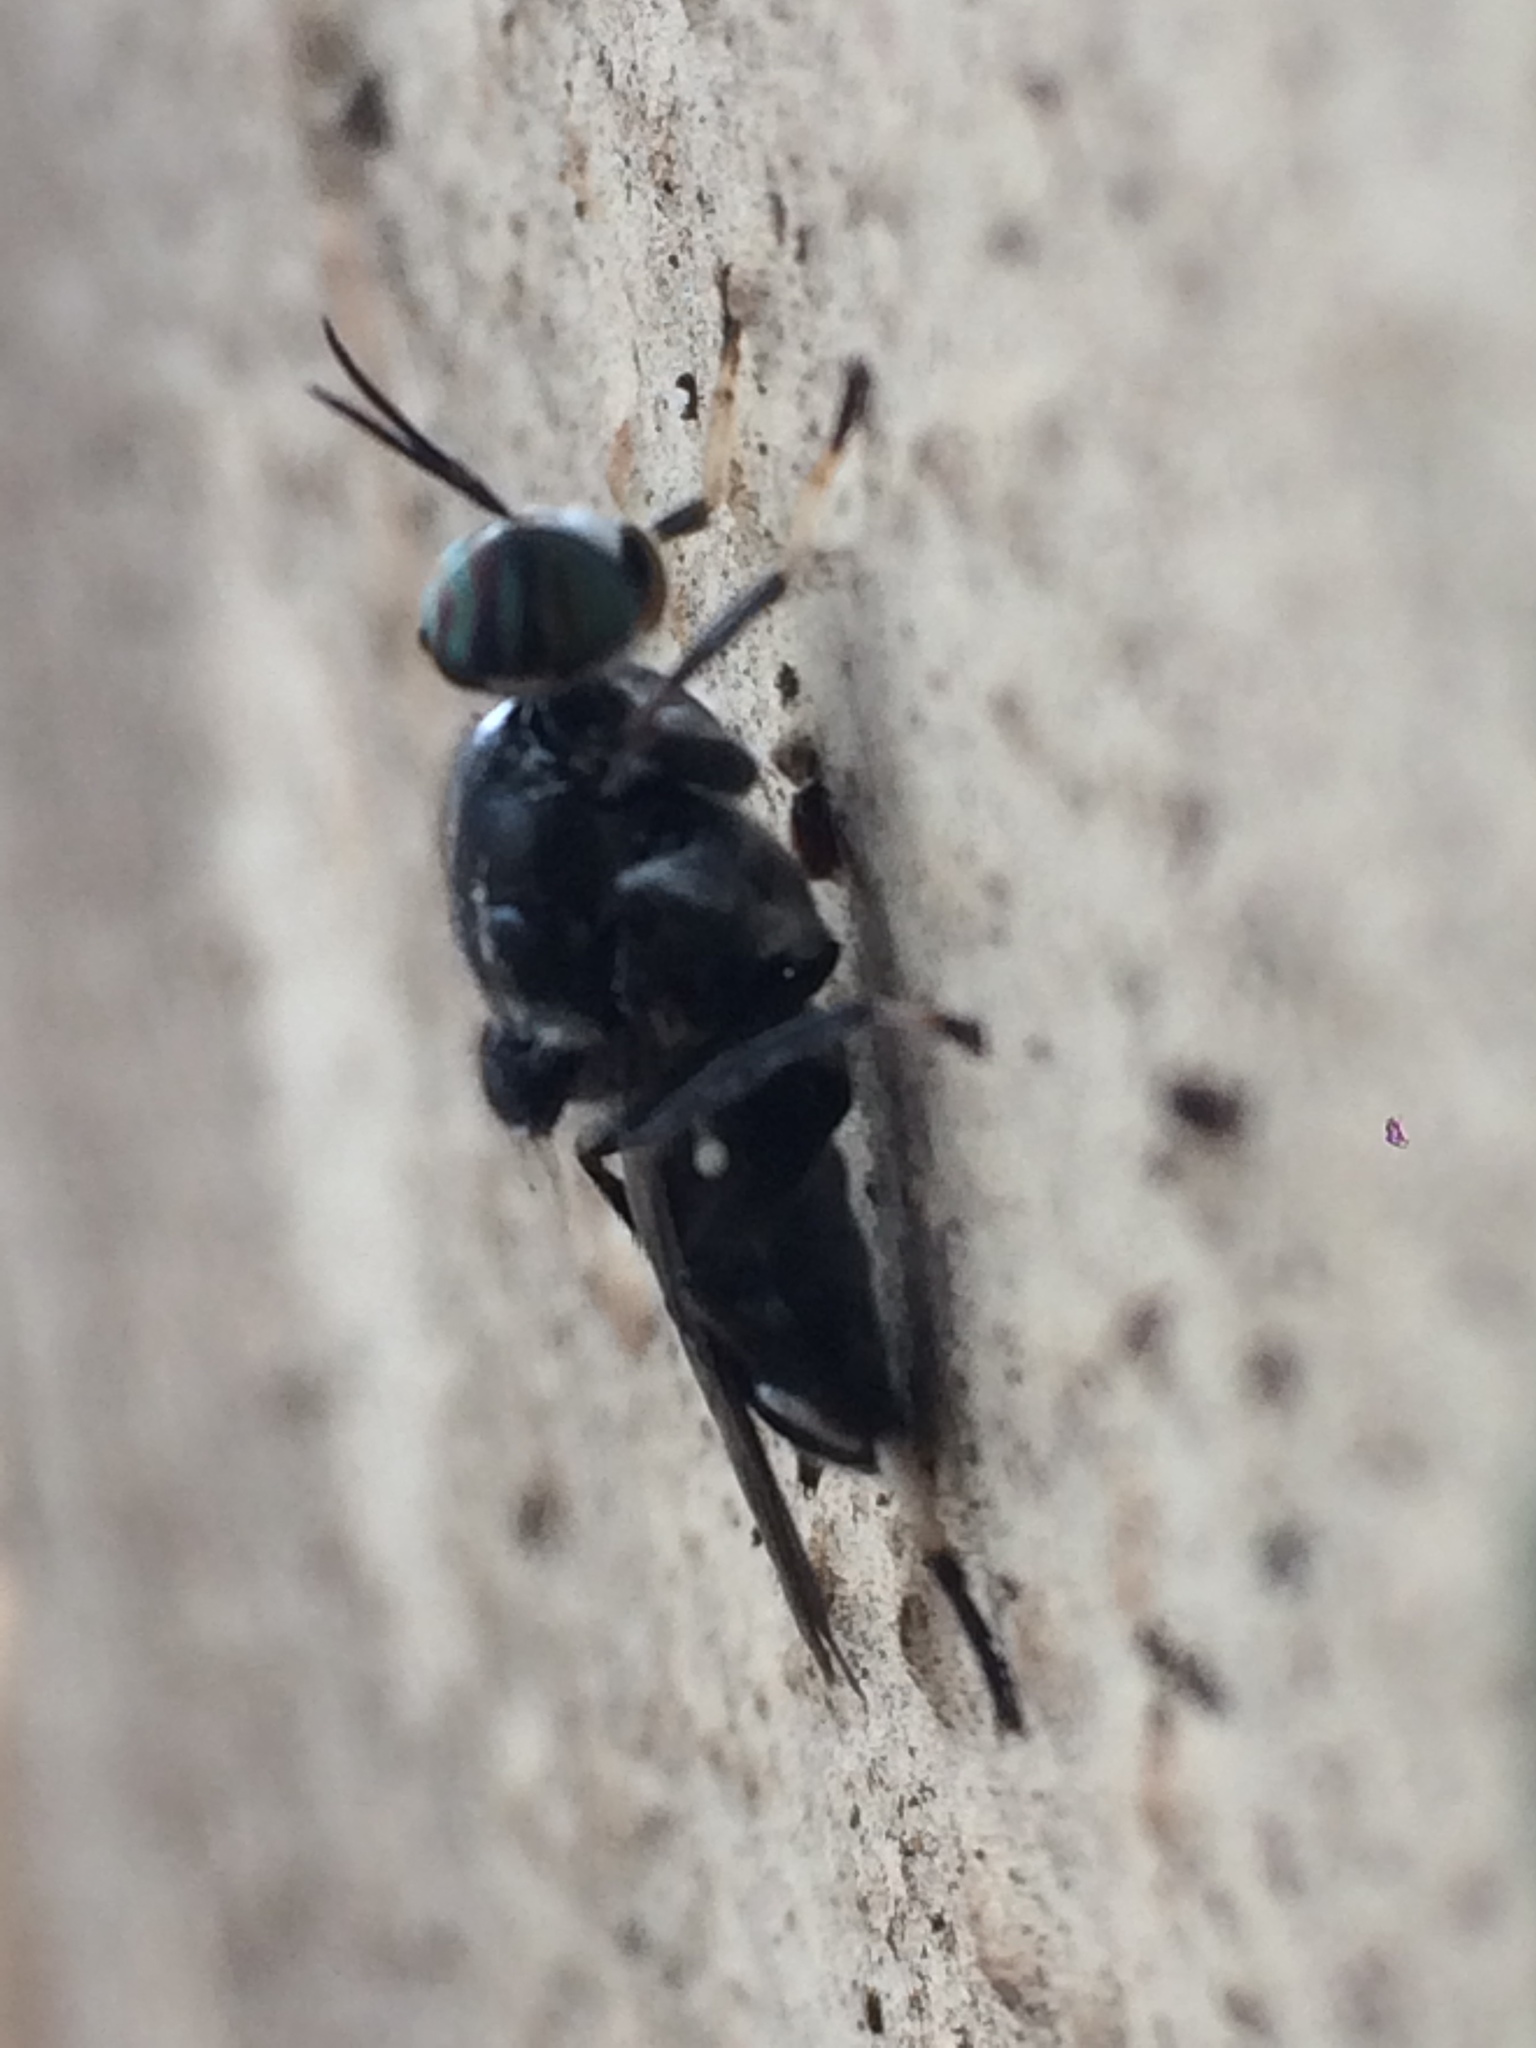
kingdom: Animalia
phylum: Arthropoda
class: Insecta
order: Diptera
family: Stratiomyidae
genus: Cyphomyia
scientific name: Cyphomyia wiedemanni
